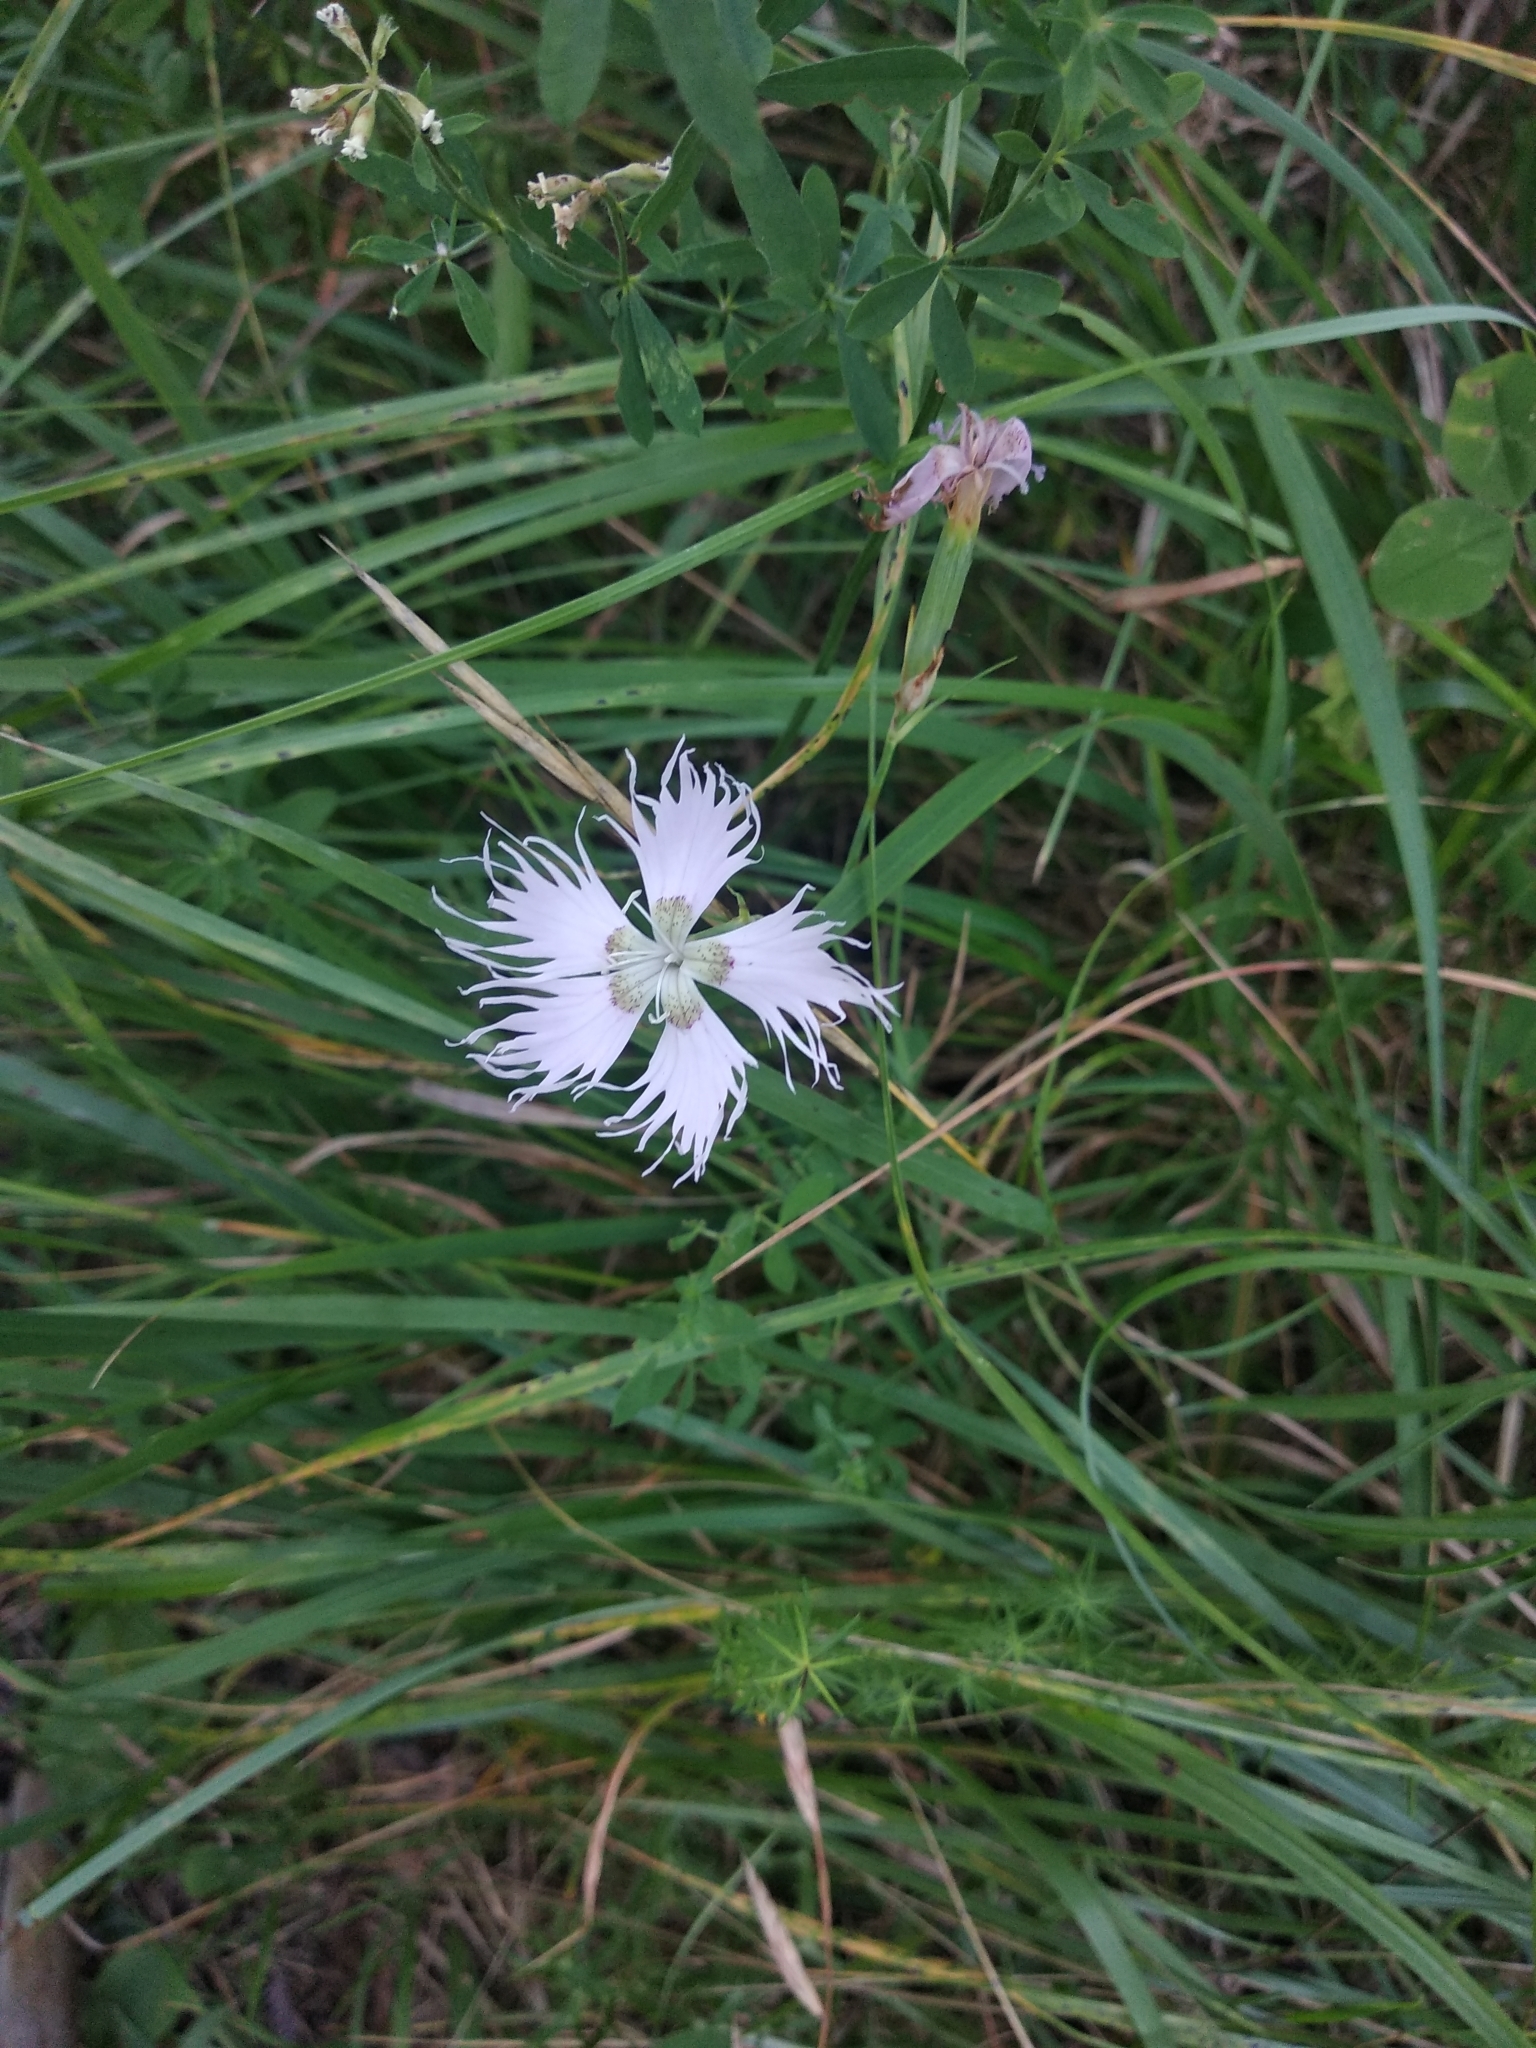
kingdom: Plantae
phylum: Tracheophyta
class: Magnoliopsida
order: Caryophyllales
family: Caryophyllaceae
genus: Dianthus
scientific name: Dianthus hyssopifolius
